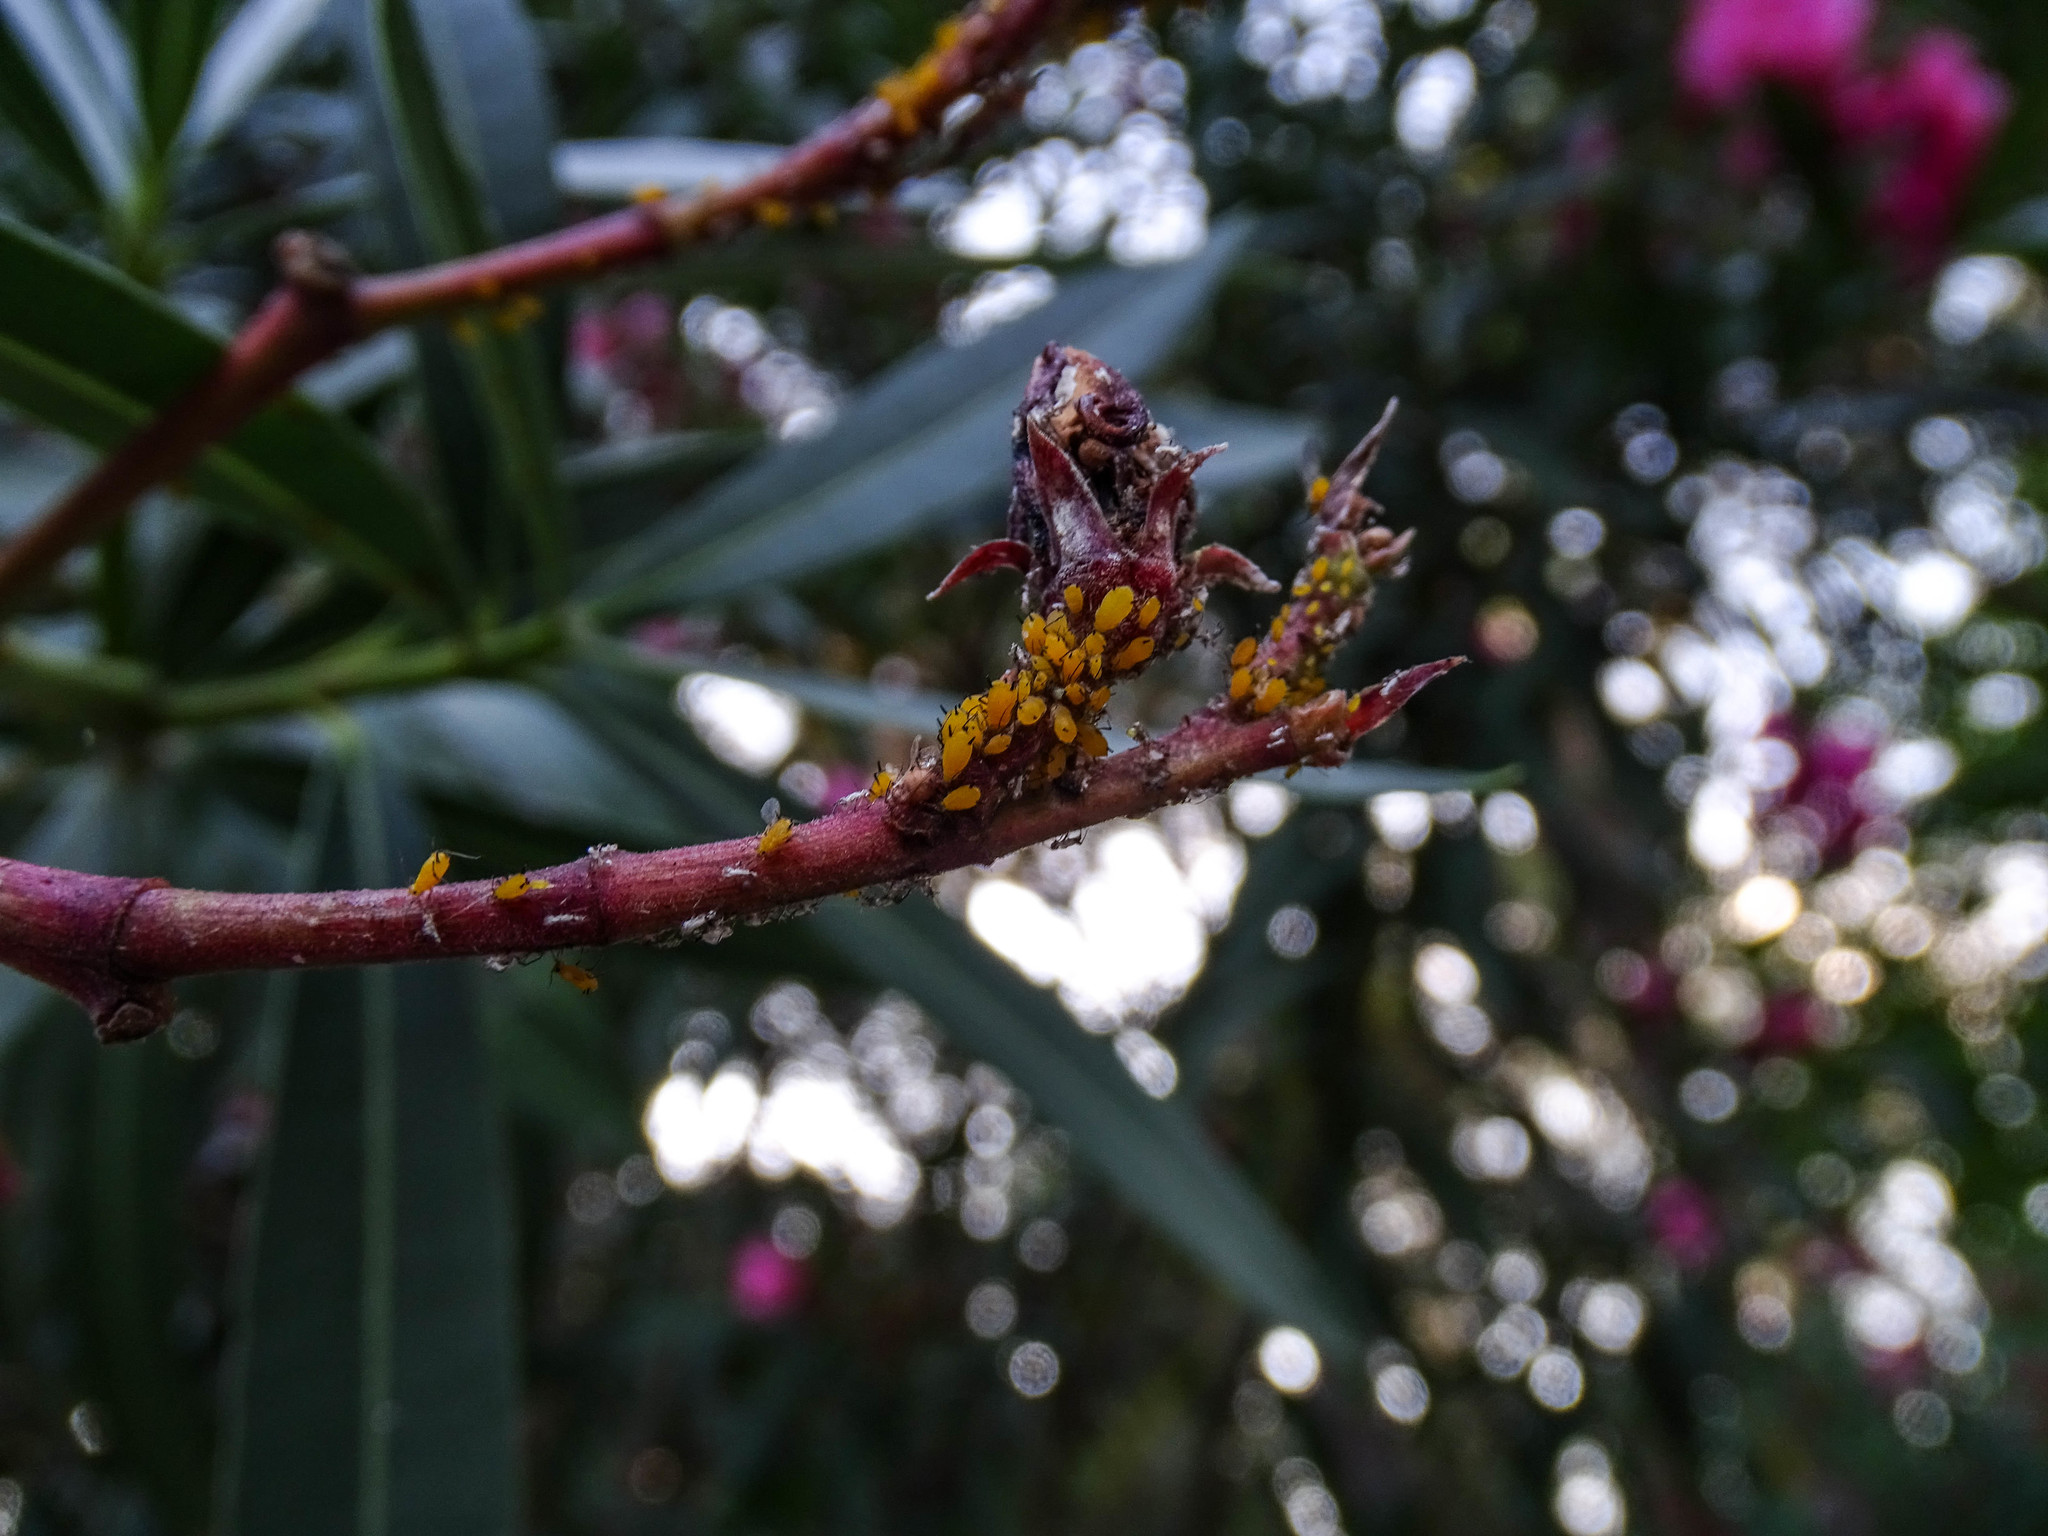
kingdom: Animalia
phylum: Arthropoda
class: Insecta
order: Hemiptera
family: Aphididae
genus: Aphis
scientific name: Aphis nerii
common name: Oleander aphid
